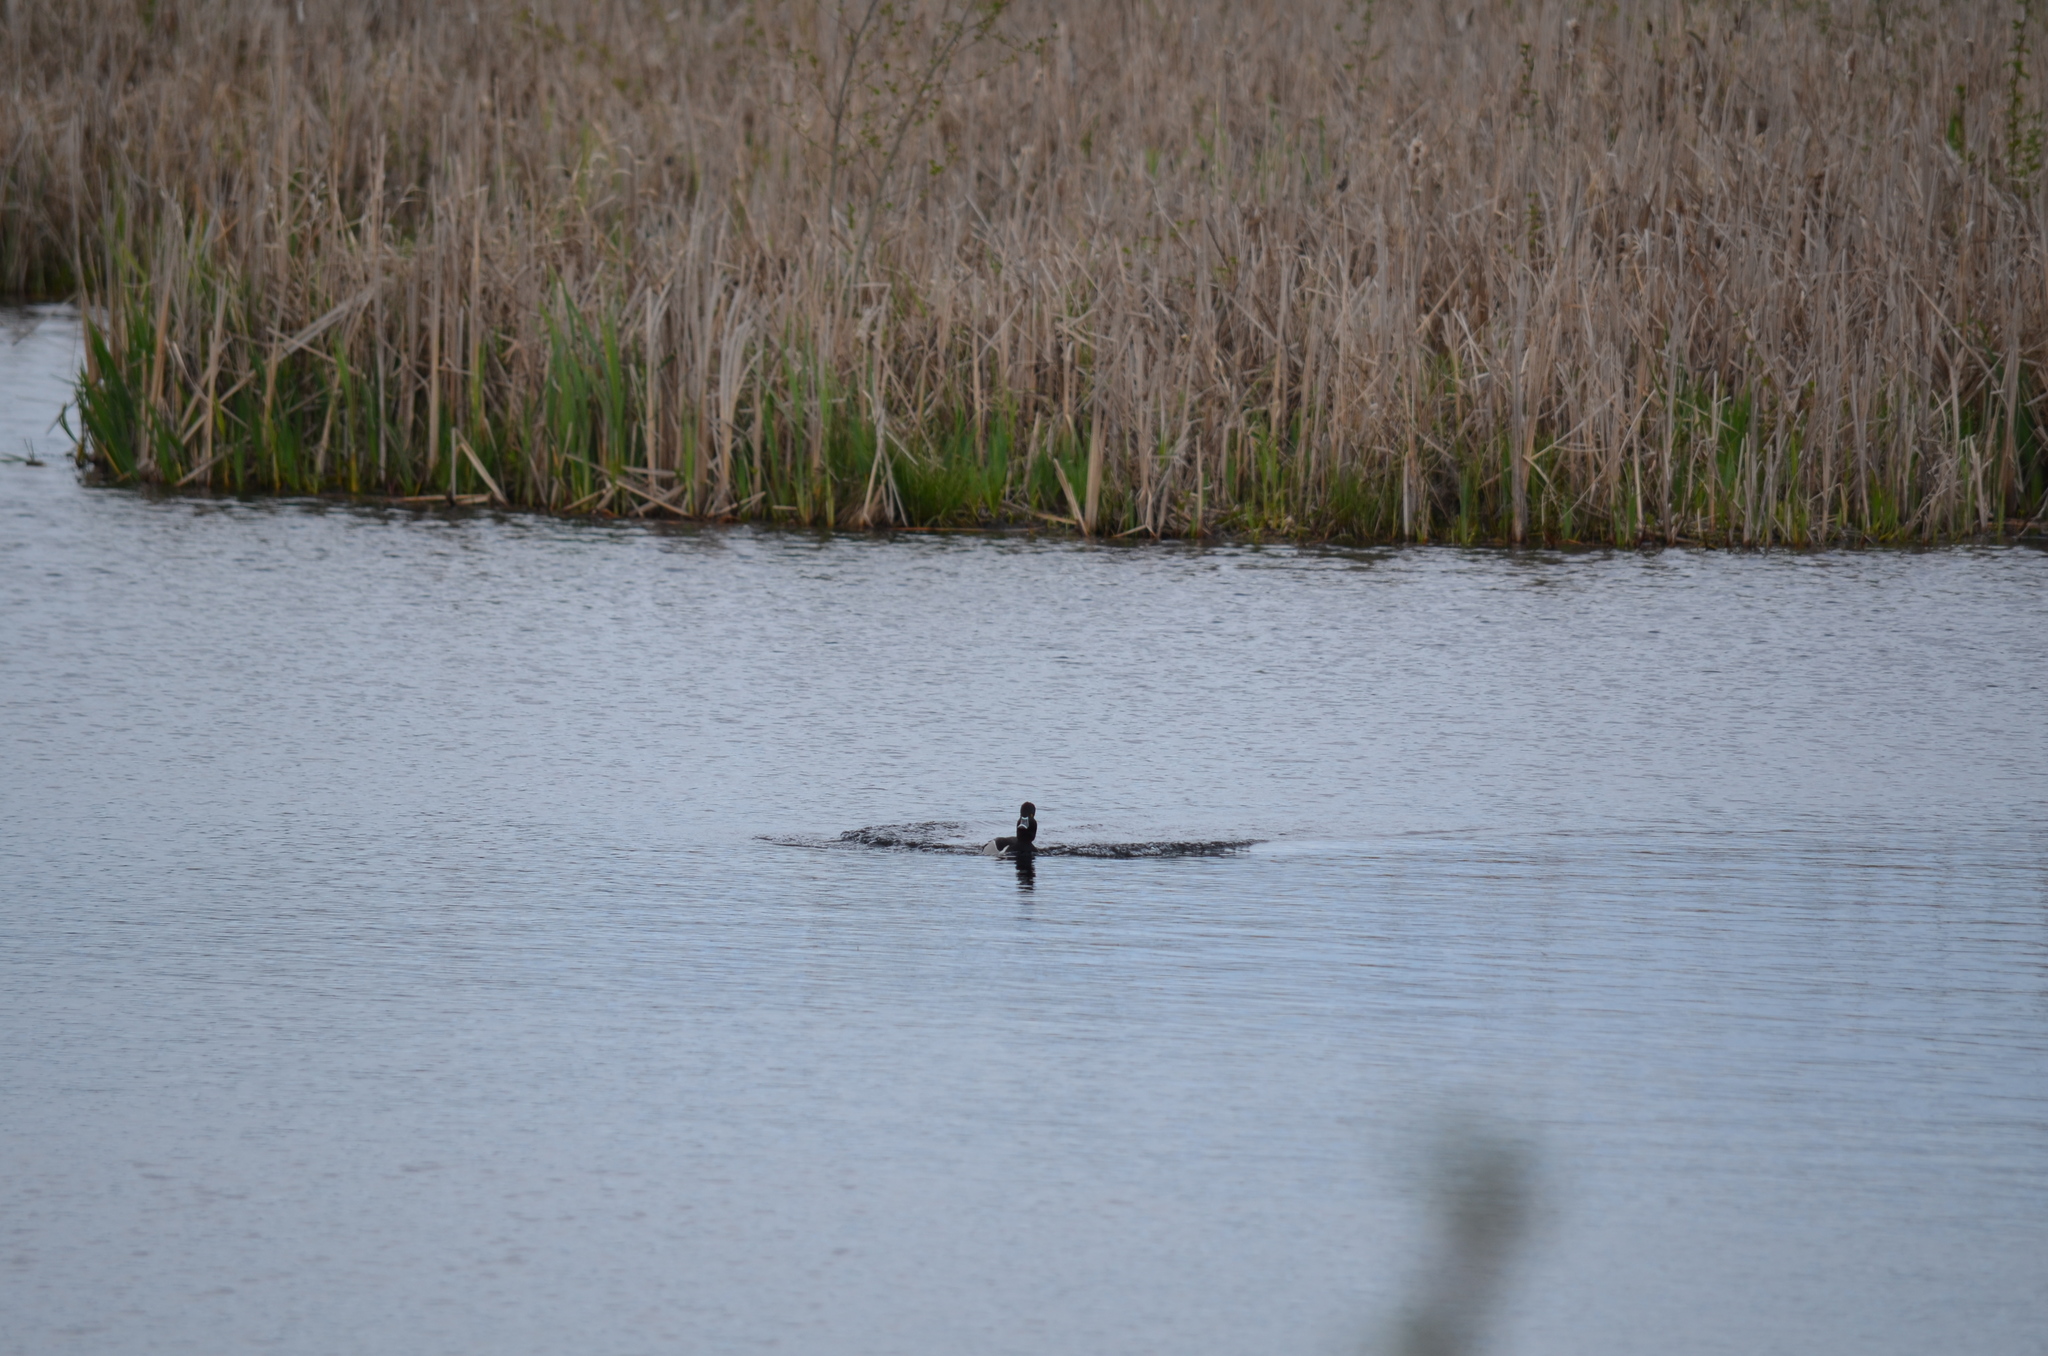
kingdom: Animalia
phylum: Chordata
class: Aves
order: Anseriformes
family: Anatidae
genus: Aythya
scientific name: Aythya collaris
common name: Ring-necked duck
